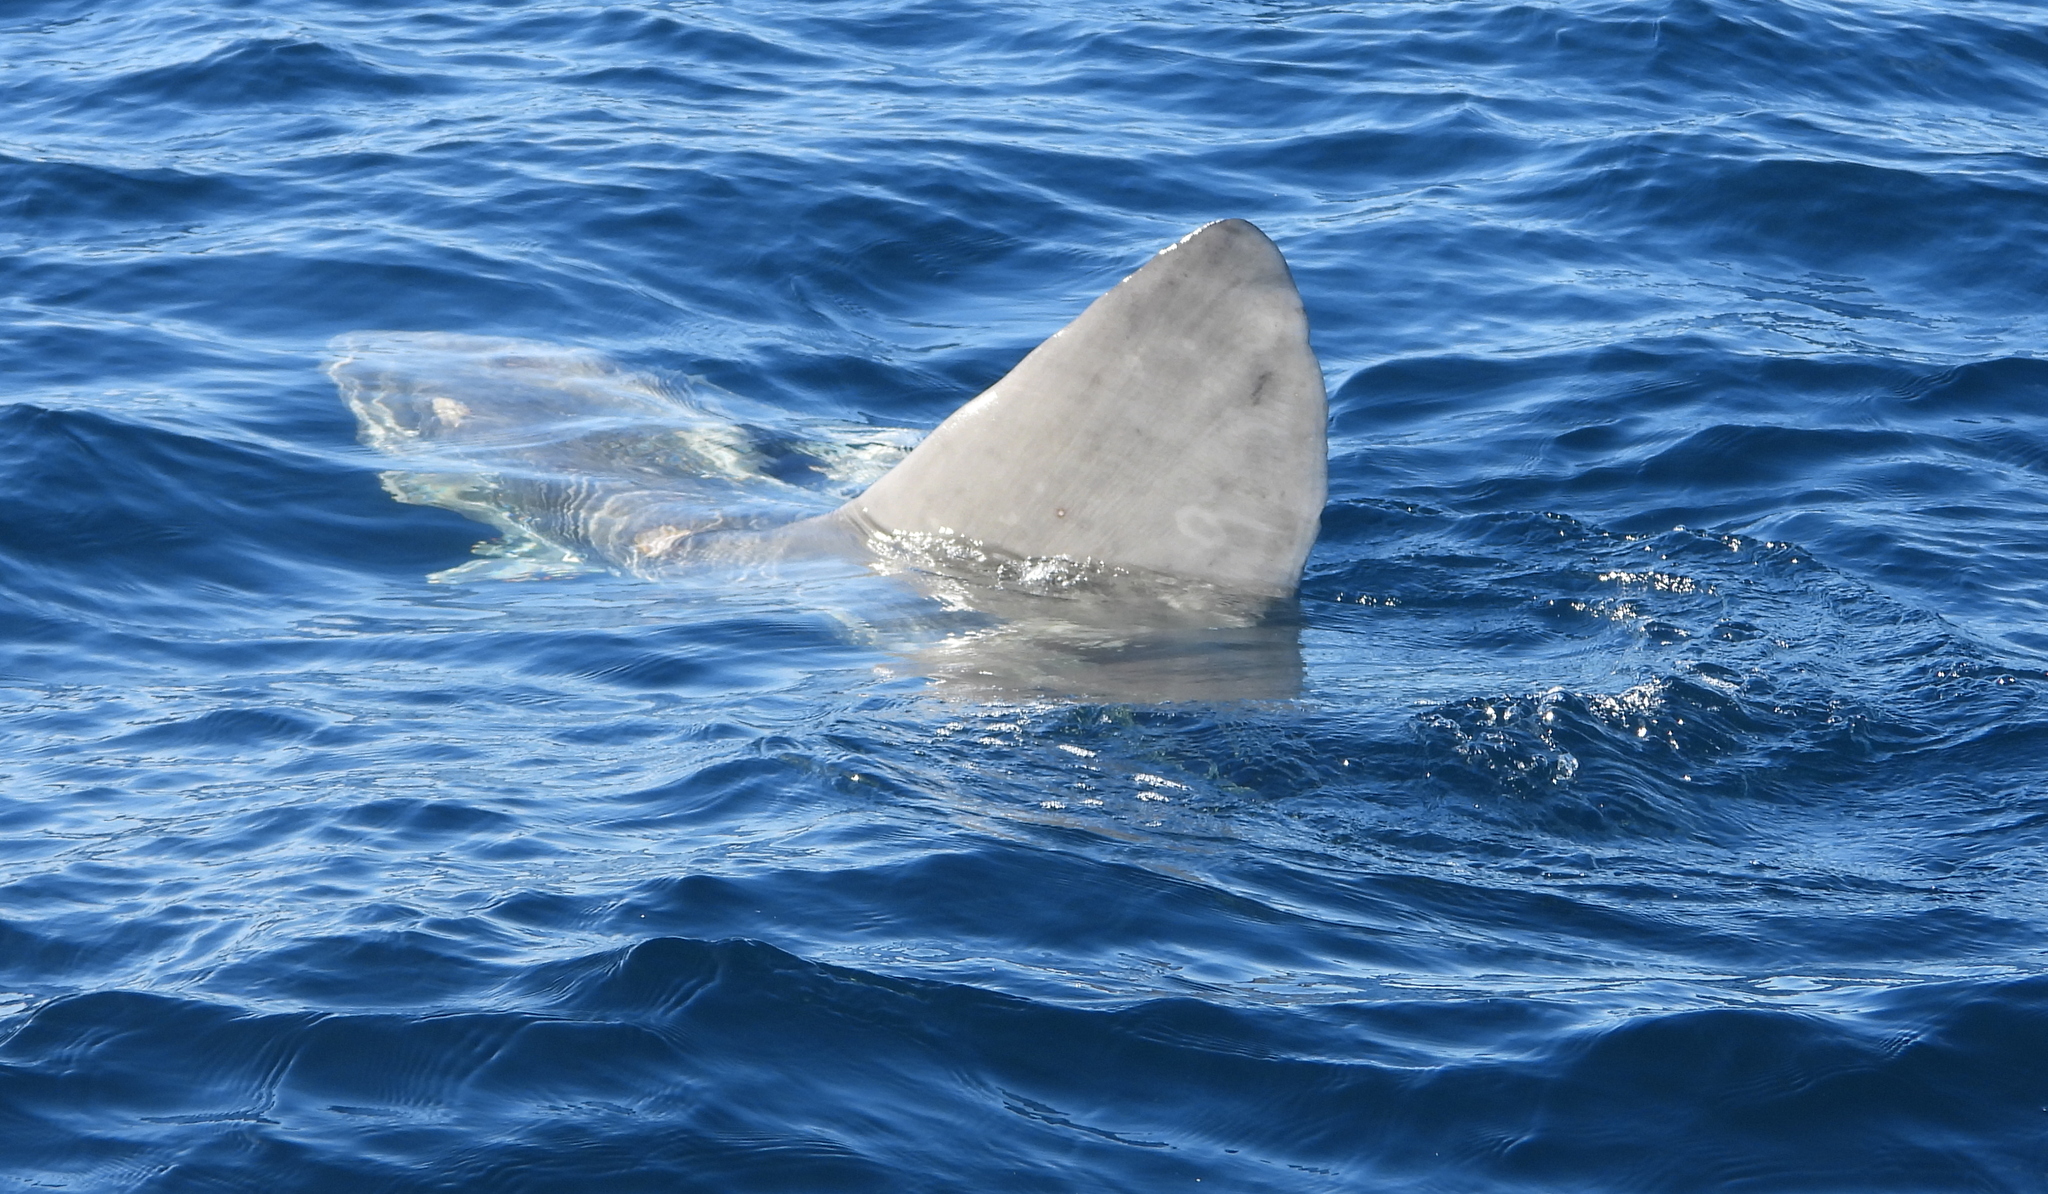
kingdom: Animalia
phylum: Chordata
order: Tetraodontiformes
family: Molidae
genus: Mola
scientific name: Mola mola
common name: Ocean sunfish
